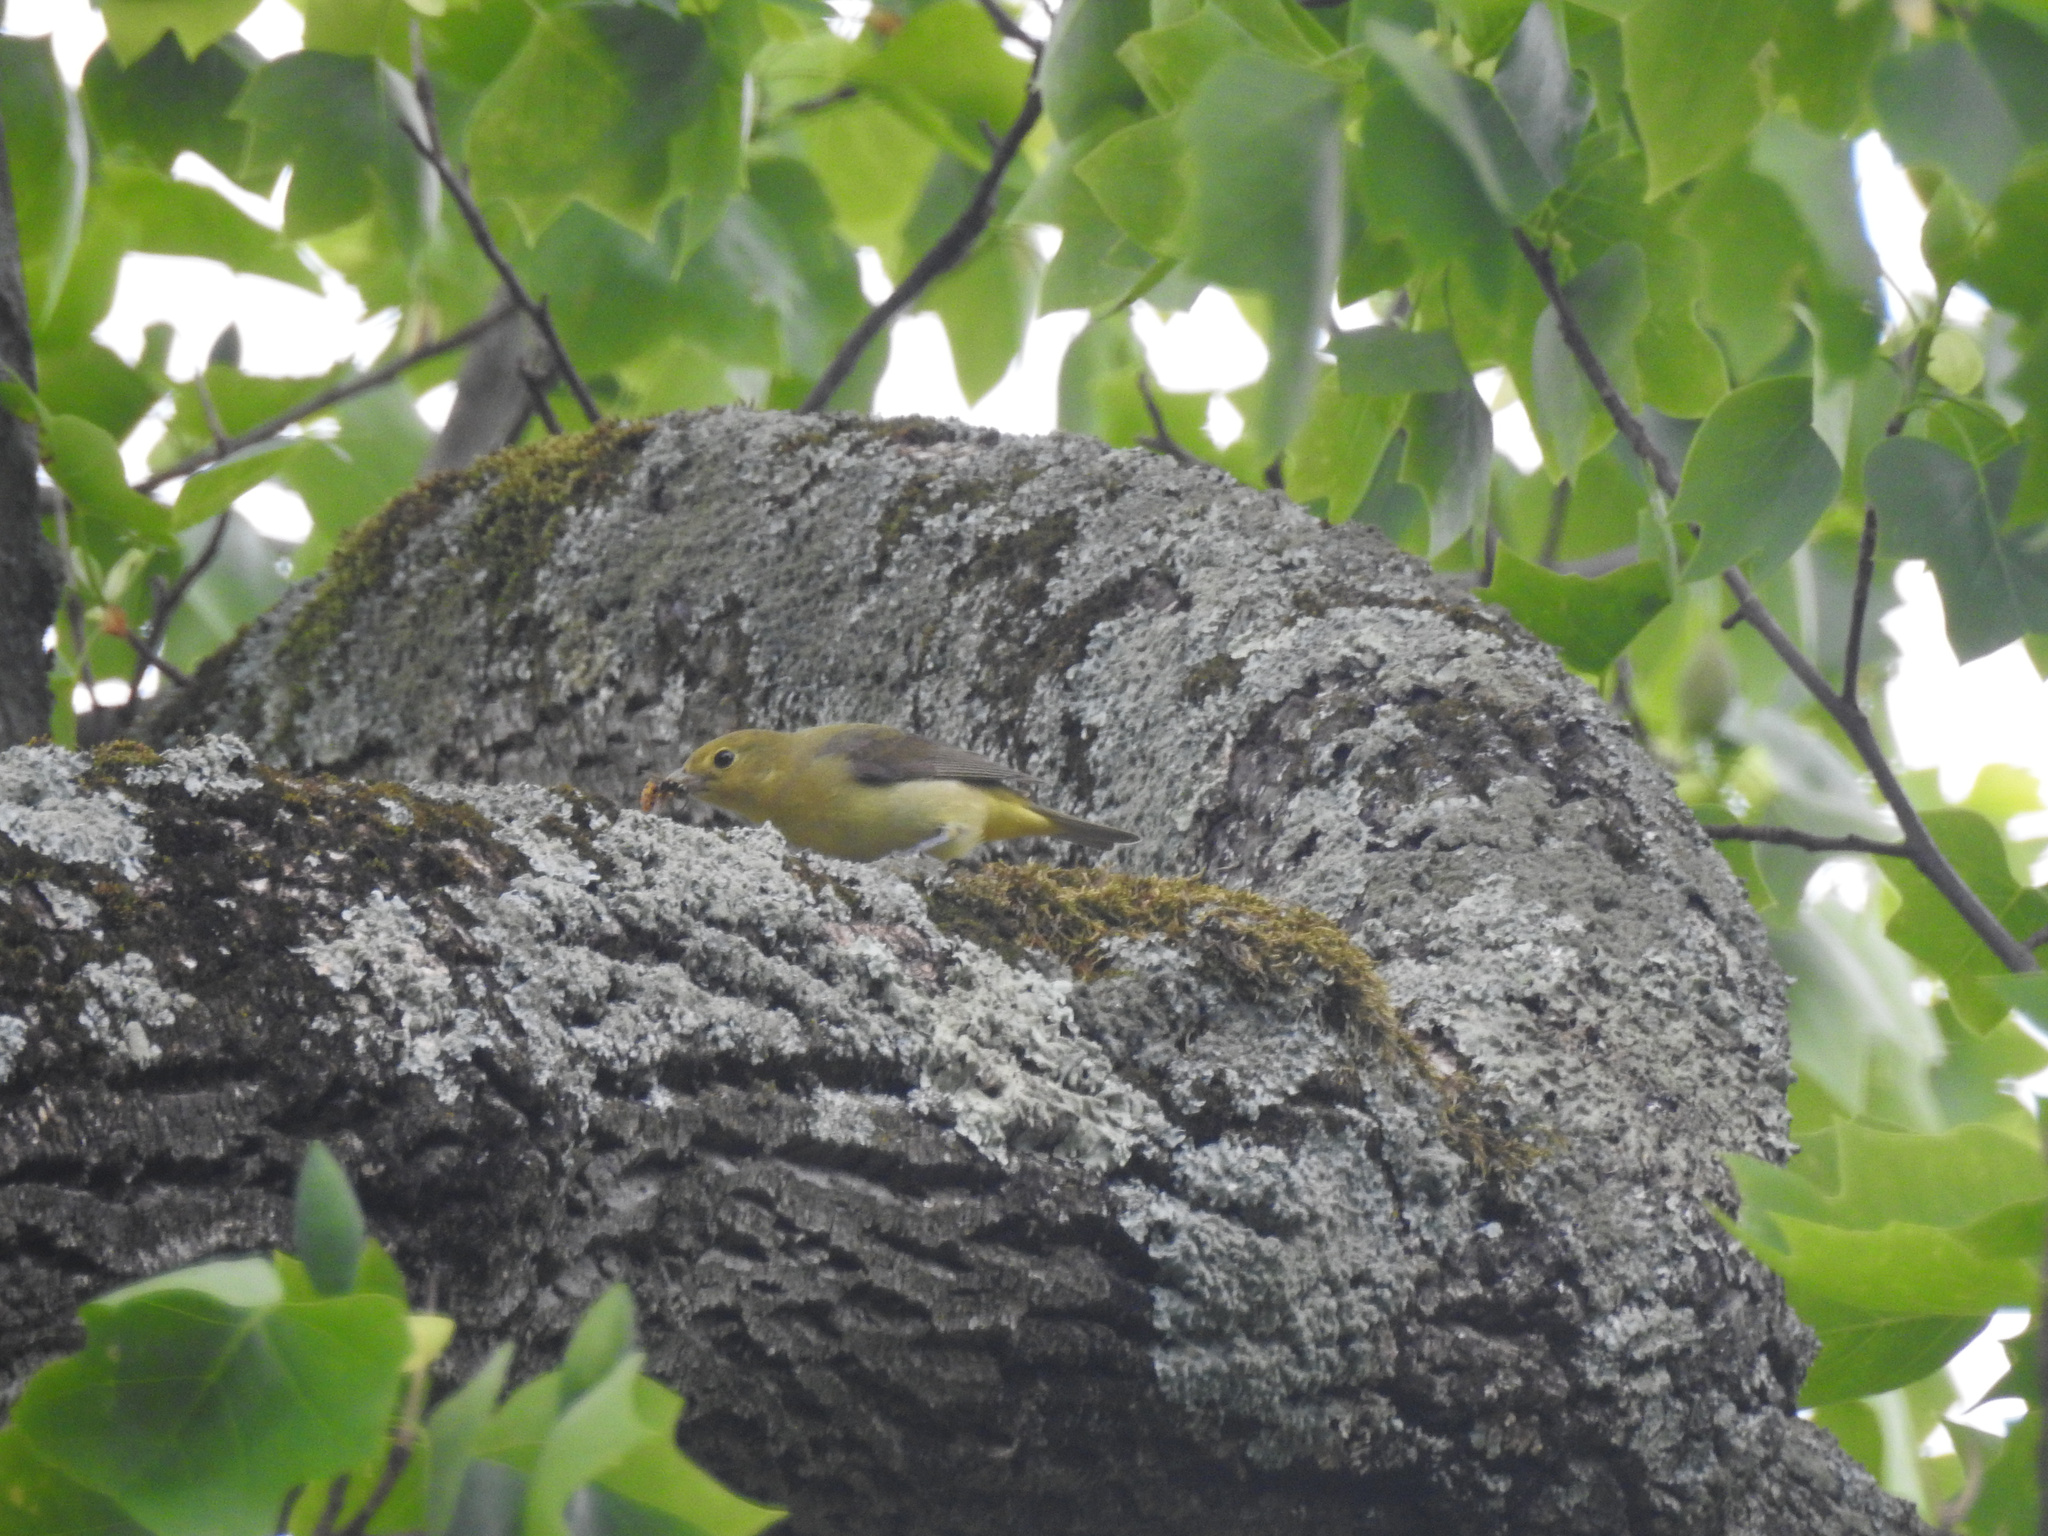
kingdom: Animalia
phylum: Chordata
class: Aves
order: Passeriformes
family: Cardinalidae
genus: Piranga
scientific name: Piranga olivacea
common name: Scarlet tanager
